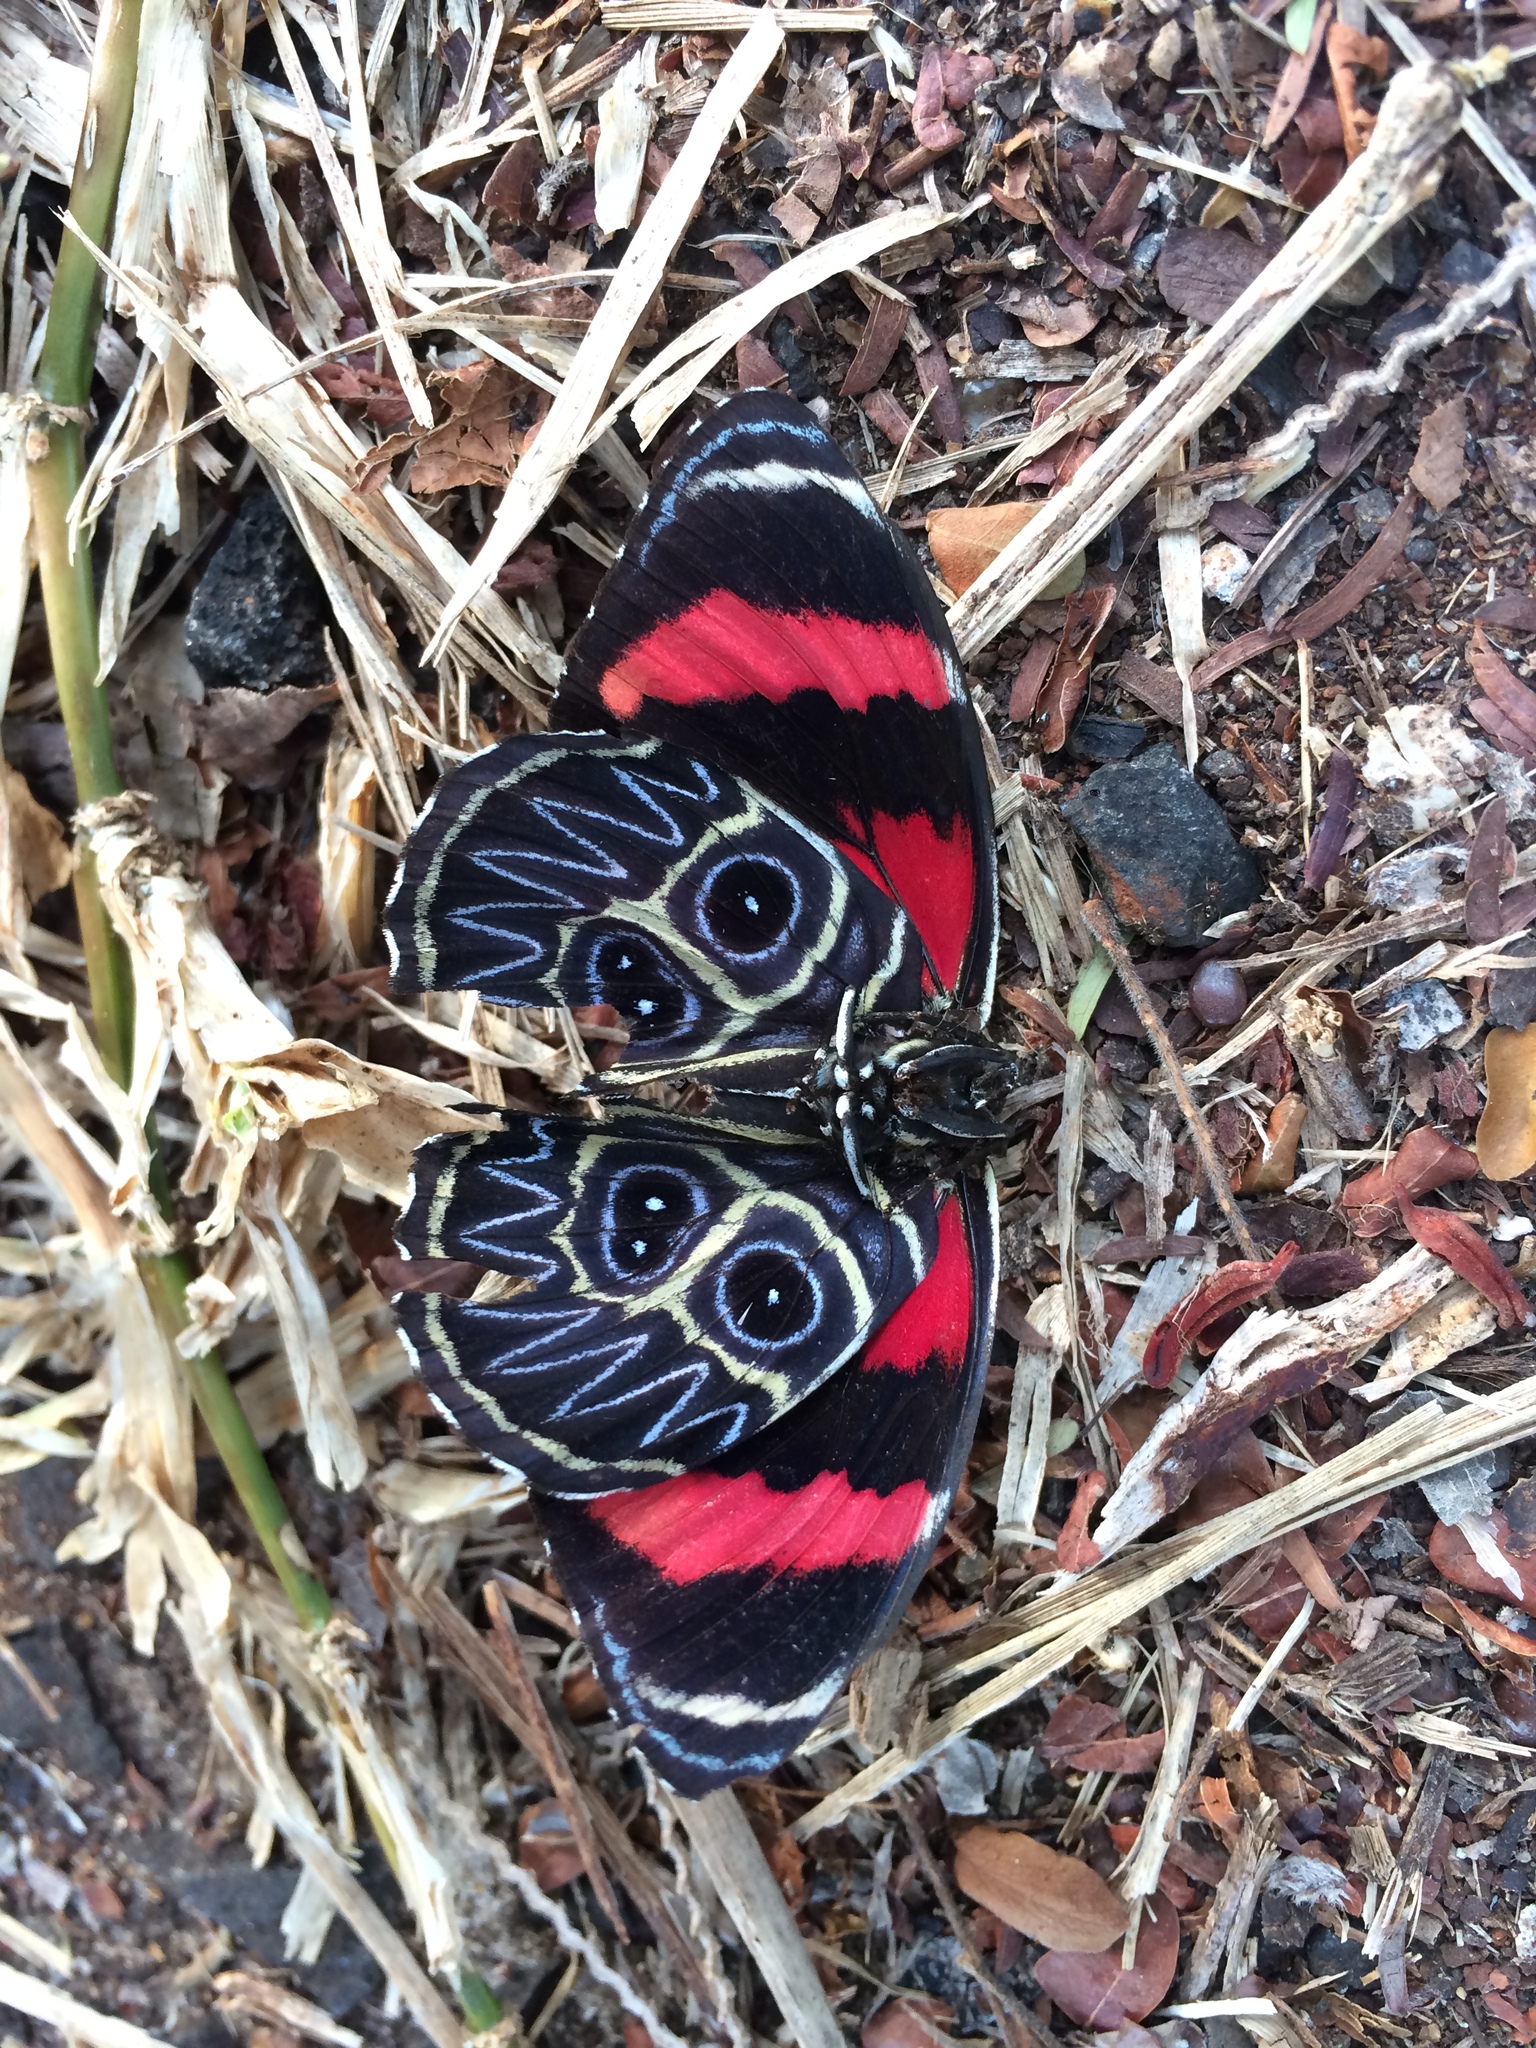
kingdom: Animalia
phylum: Arthropoda
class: Insecta
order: Lepidoptera
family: Nymphalidae
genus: Catagramma
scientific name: Catagramma Callicore sorana
